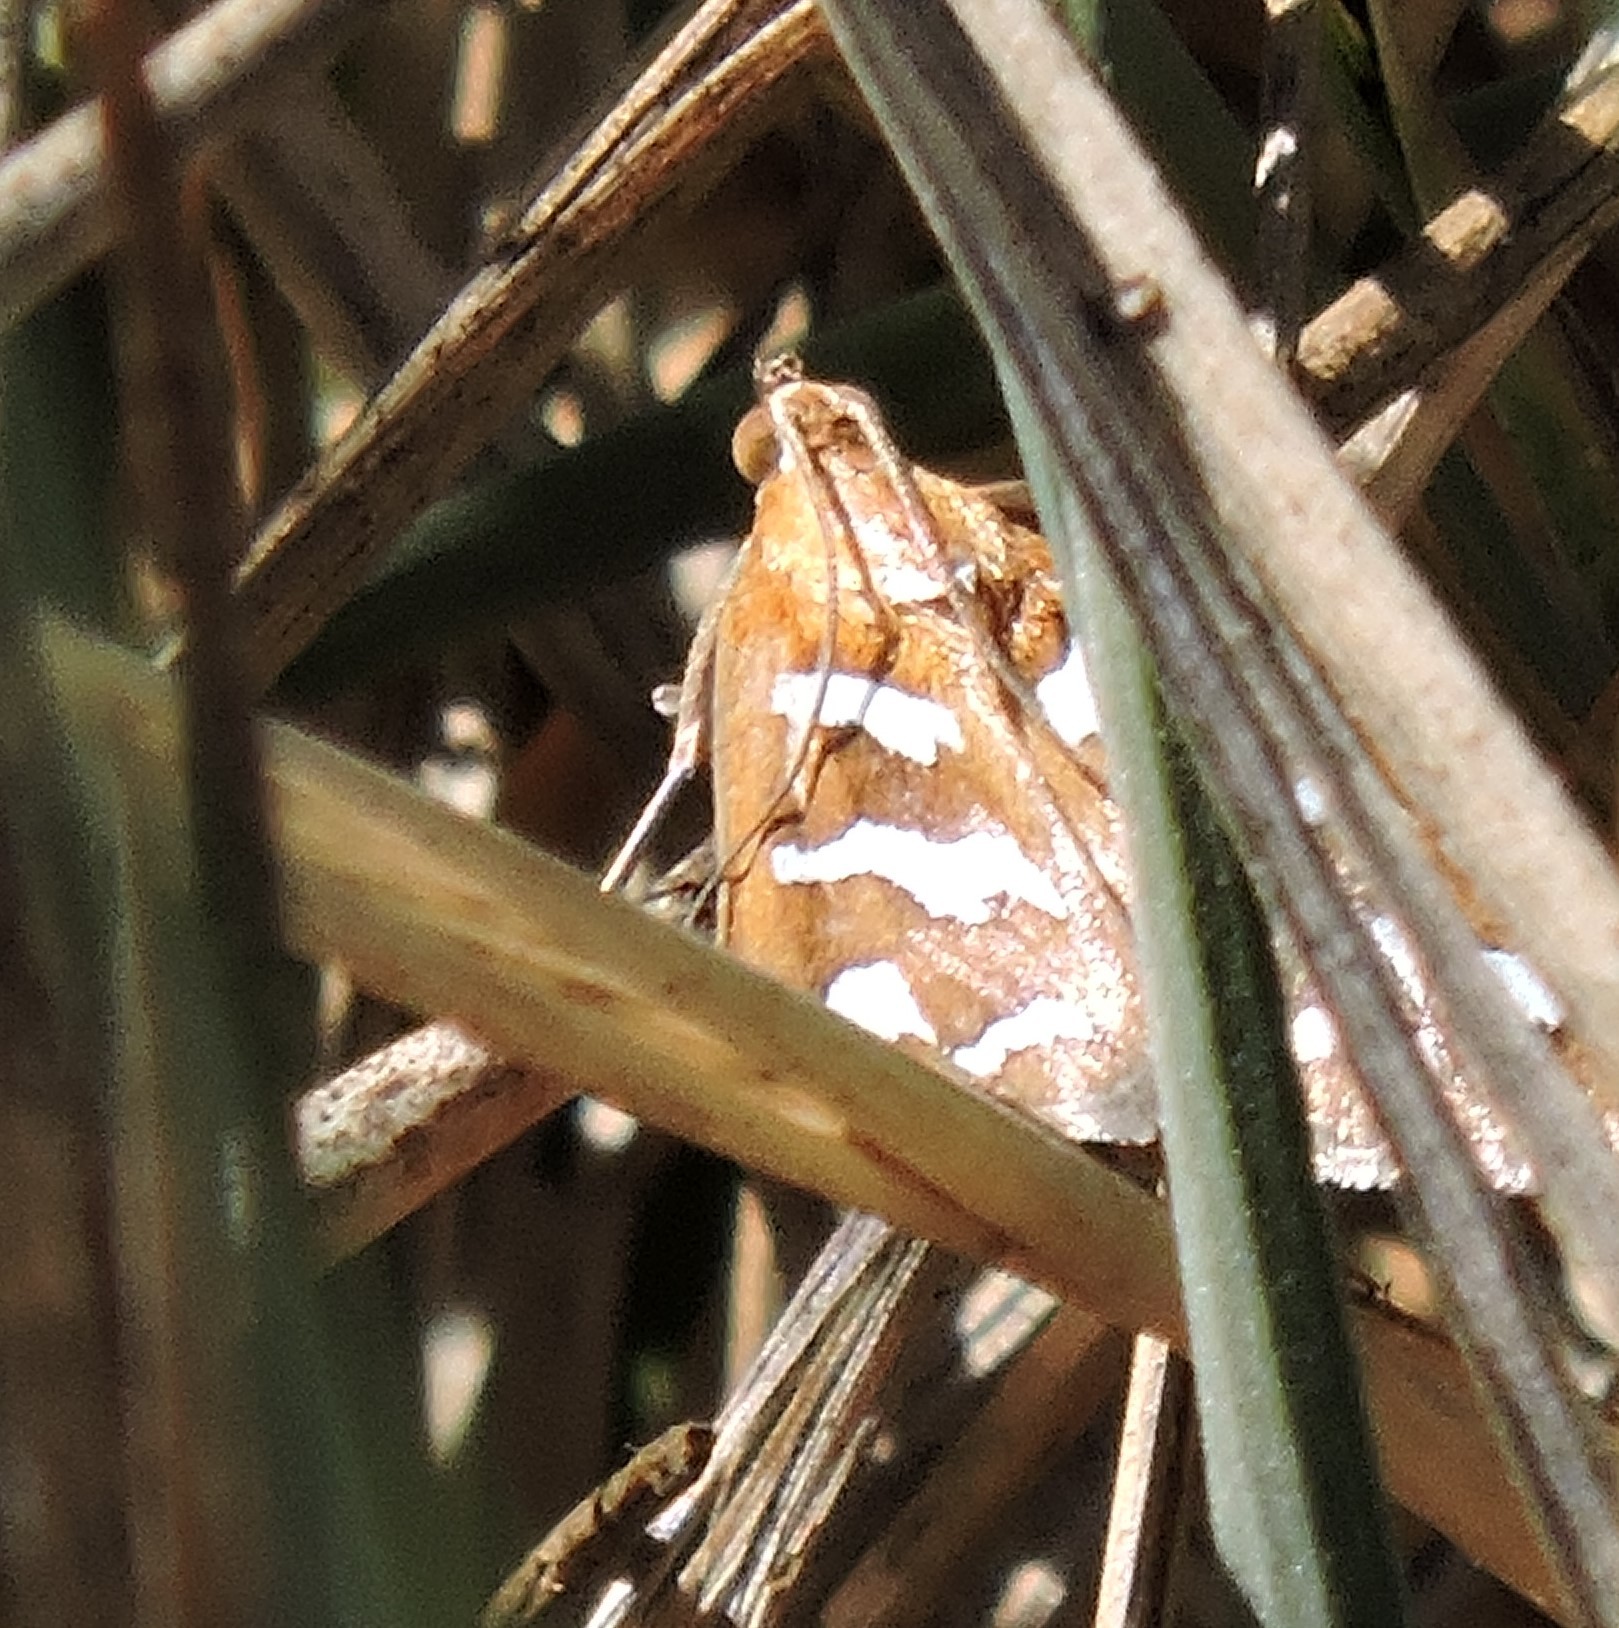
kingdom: Animalia
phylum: Arthropoda
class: Insecta
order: Lepidoptera
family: Crambidae
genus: Diastictis
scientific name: Diastictis fracturalis
